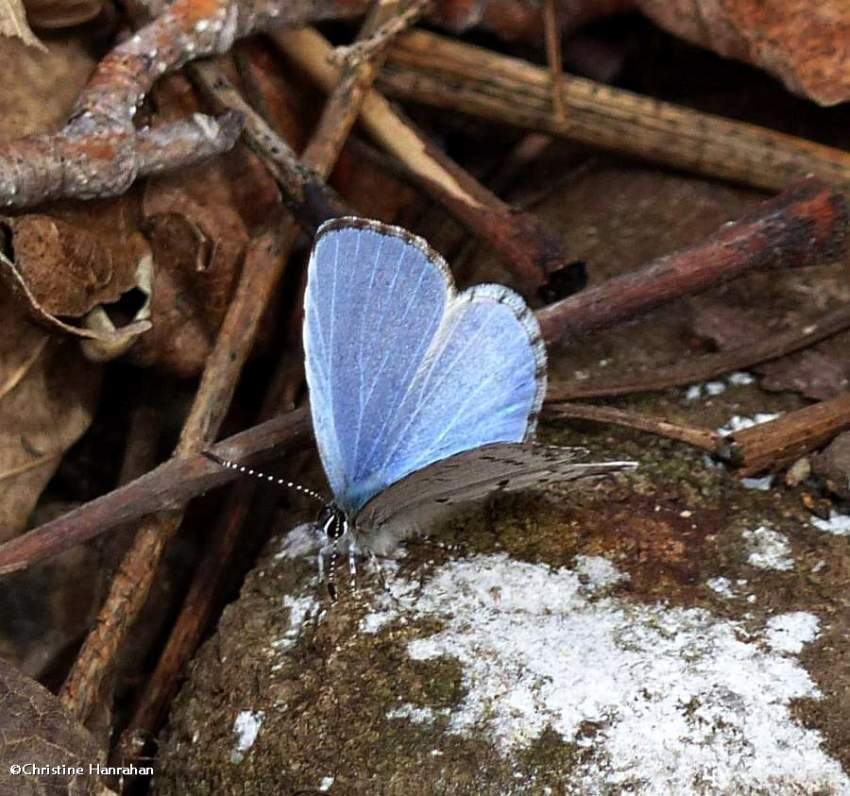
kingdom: Animalia
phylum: Arthropoda
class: Insecta
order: Lepidoptera
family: Lycaenidae
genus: Celastrina
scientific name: Celastrina lucia
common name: Lucia azure
